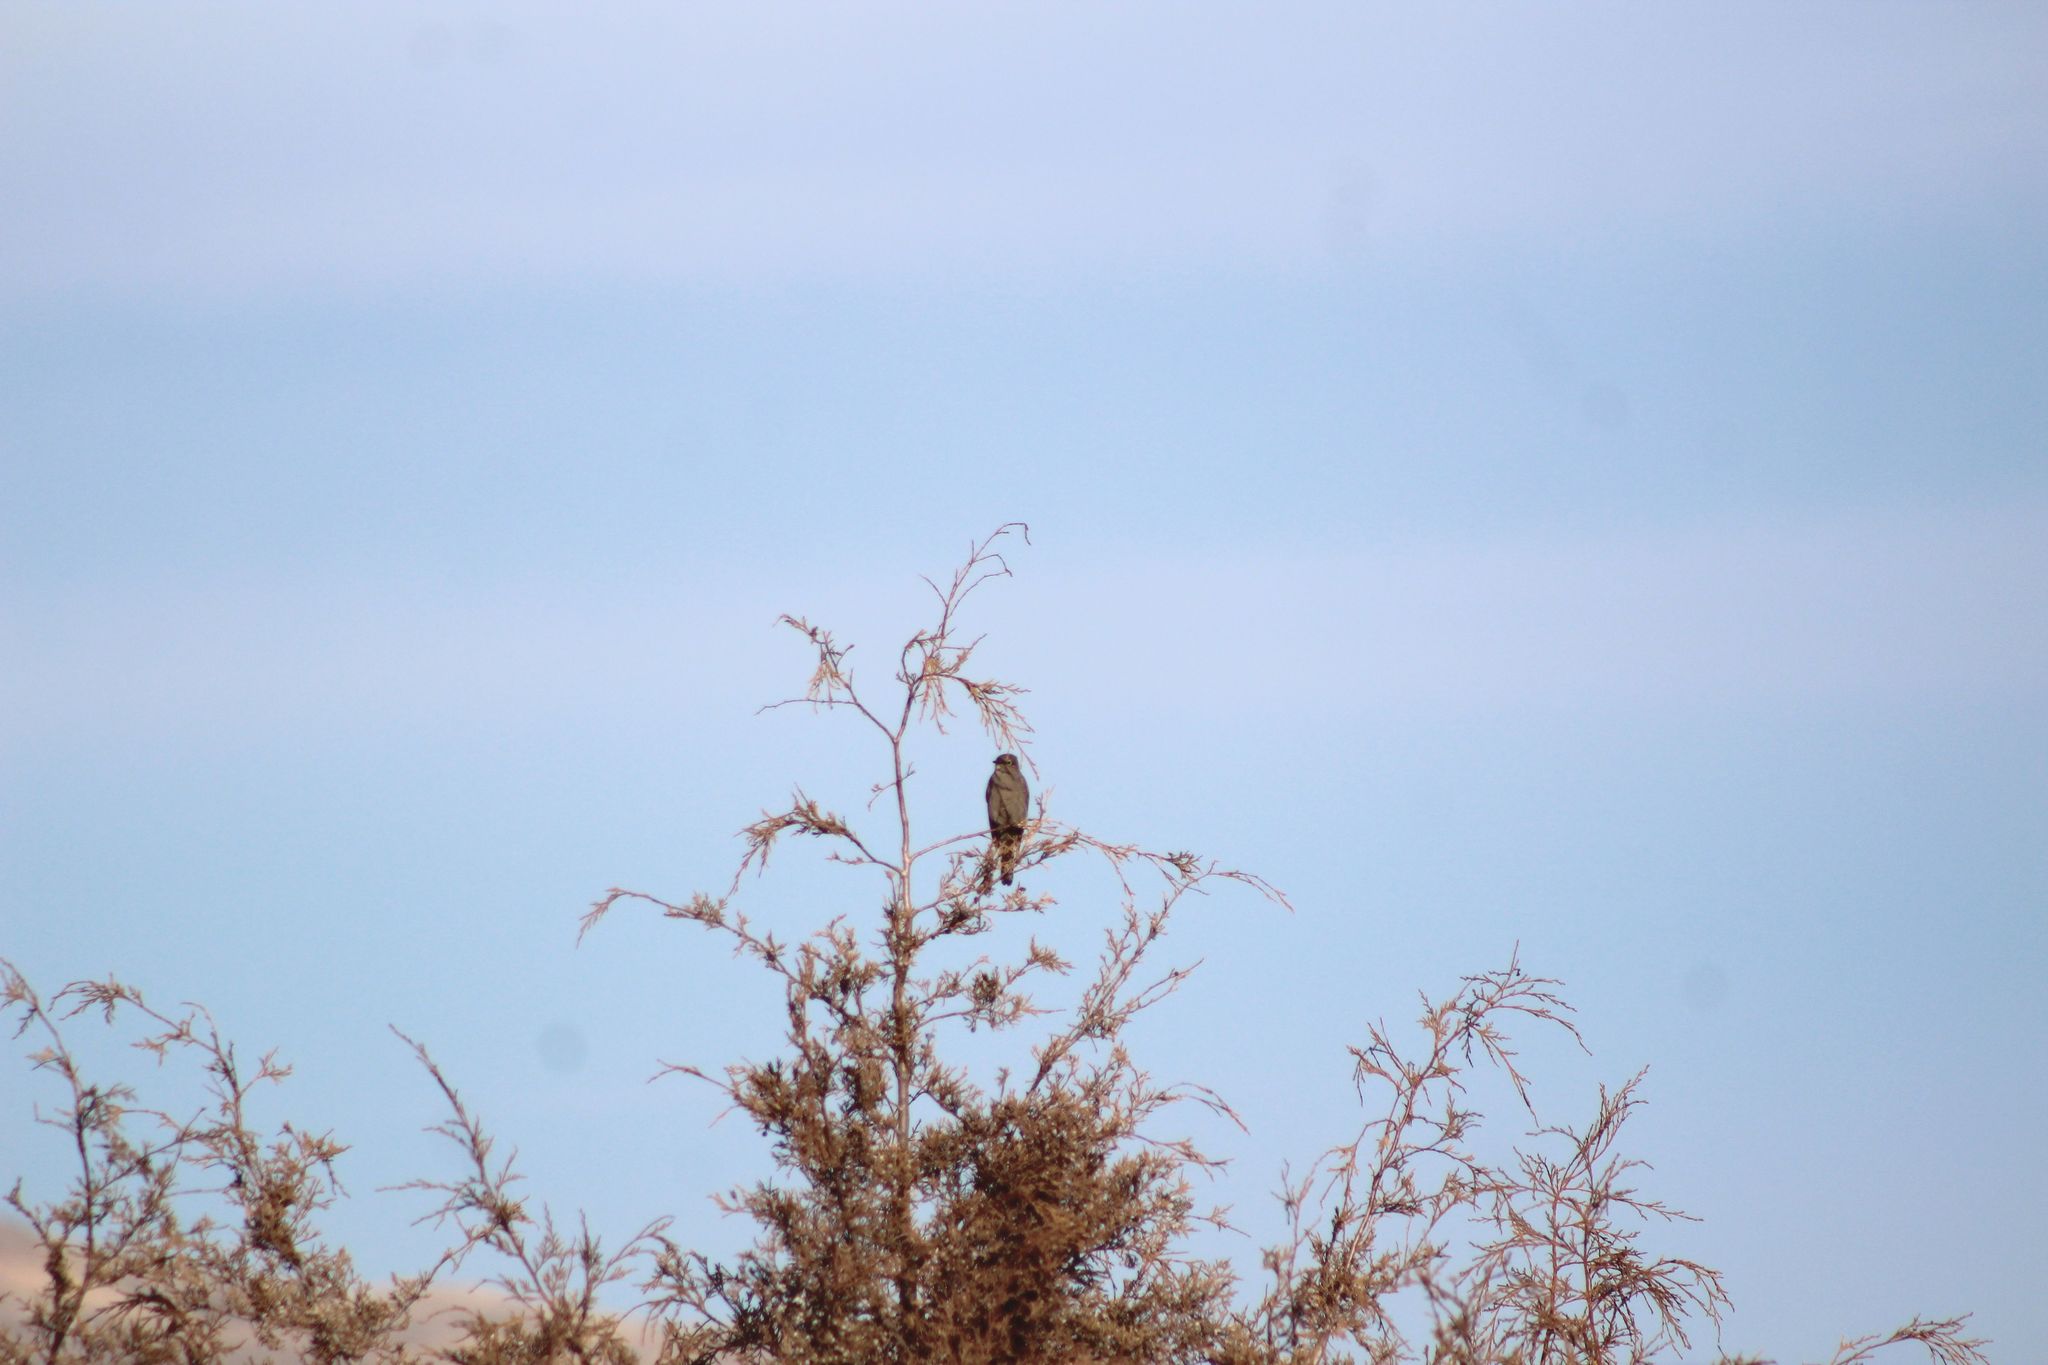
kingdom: Animalia
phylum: Chordata
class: Aves
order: Passeriformes
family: Turdidae
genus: Myadestes
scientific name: Myadestes townsendi
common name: Townsend's solitaire
